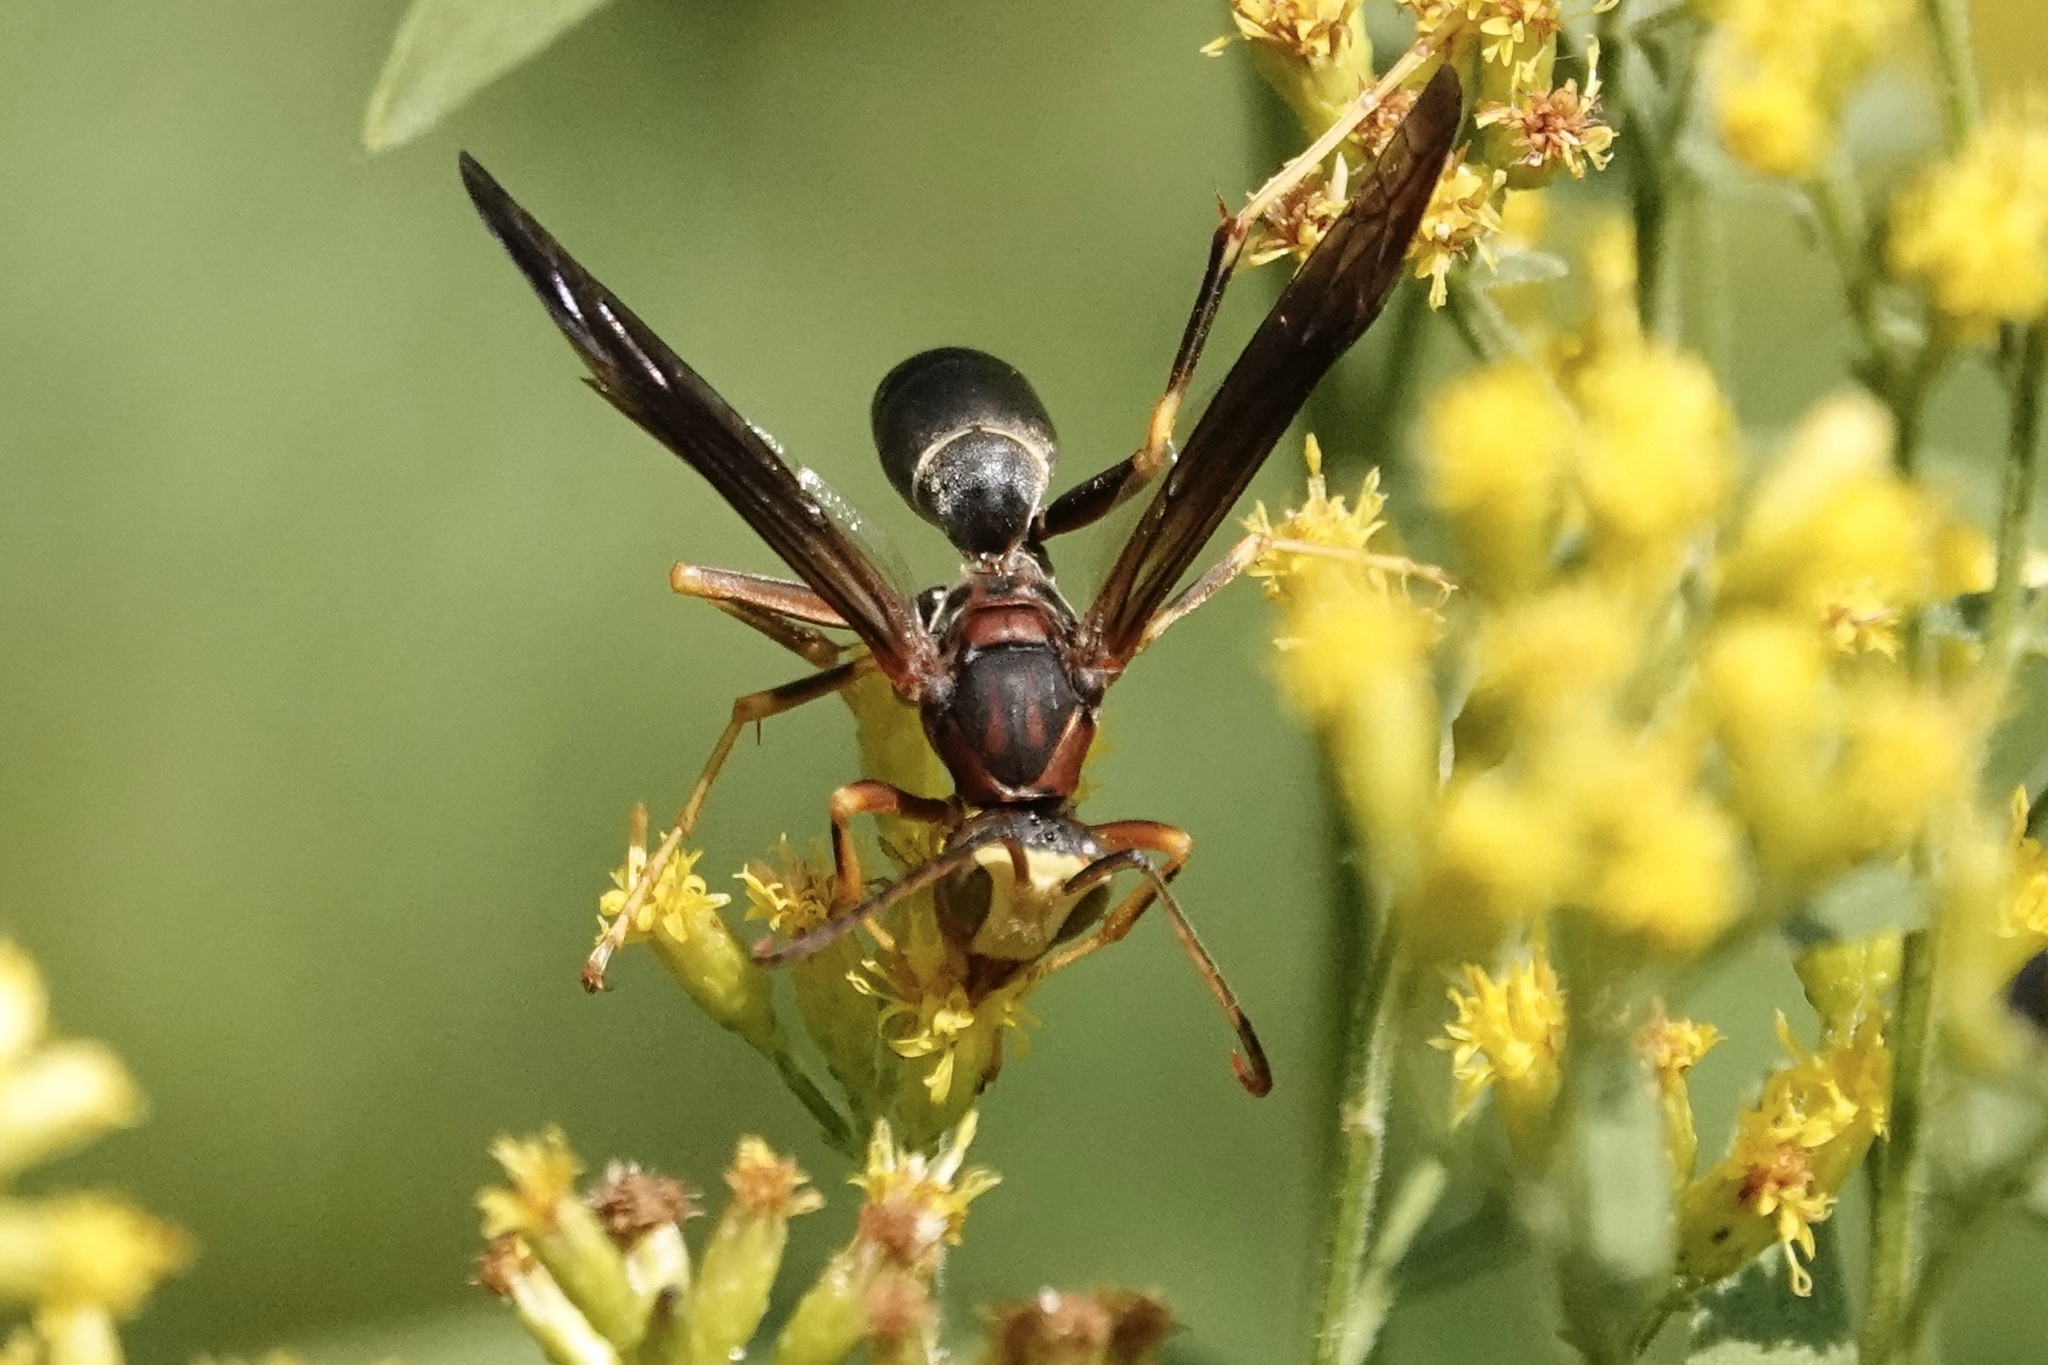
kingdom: Animalia
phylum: Arthropoda
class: Insecta
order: Hymenoptera
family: Eumenidae
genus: Polistes
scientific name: Polistes metricus
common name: Metric paper wasp
